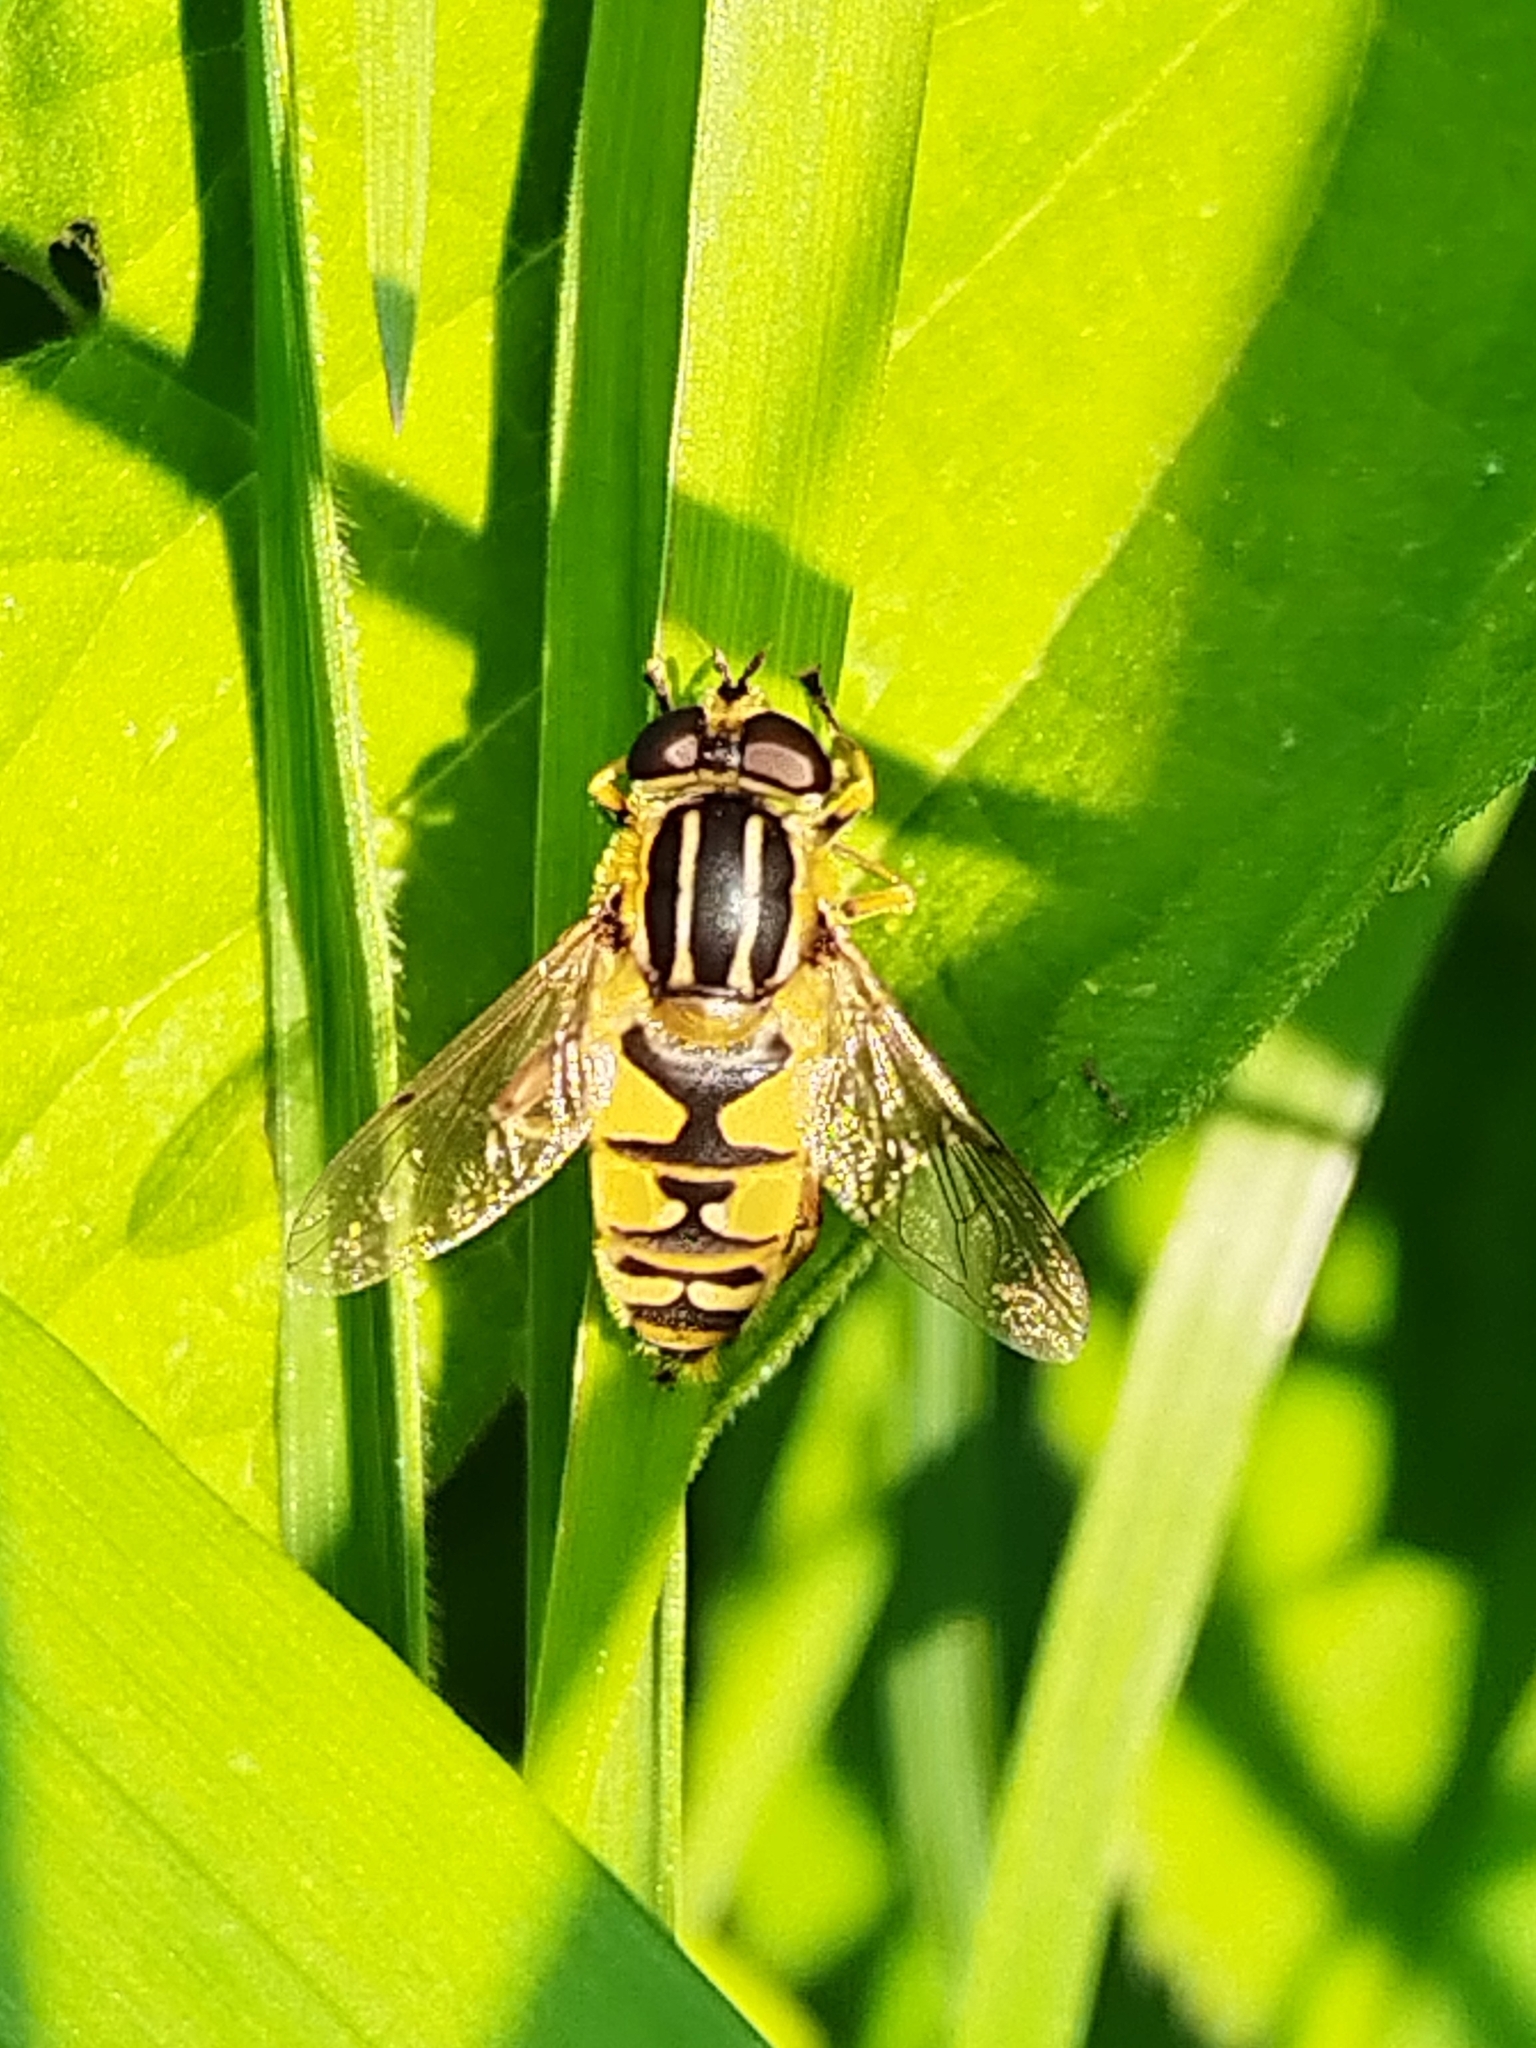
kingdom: Animalia
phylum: Arthropoda
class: Insecta
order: Diptera
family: Syrphidae
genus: Helophilus
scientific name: Helophilus pendulus
